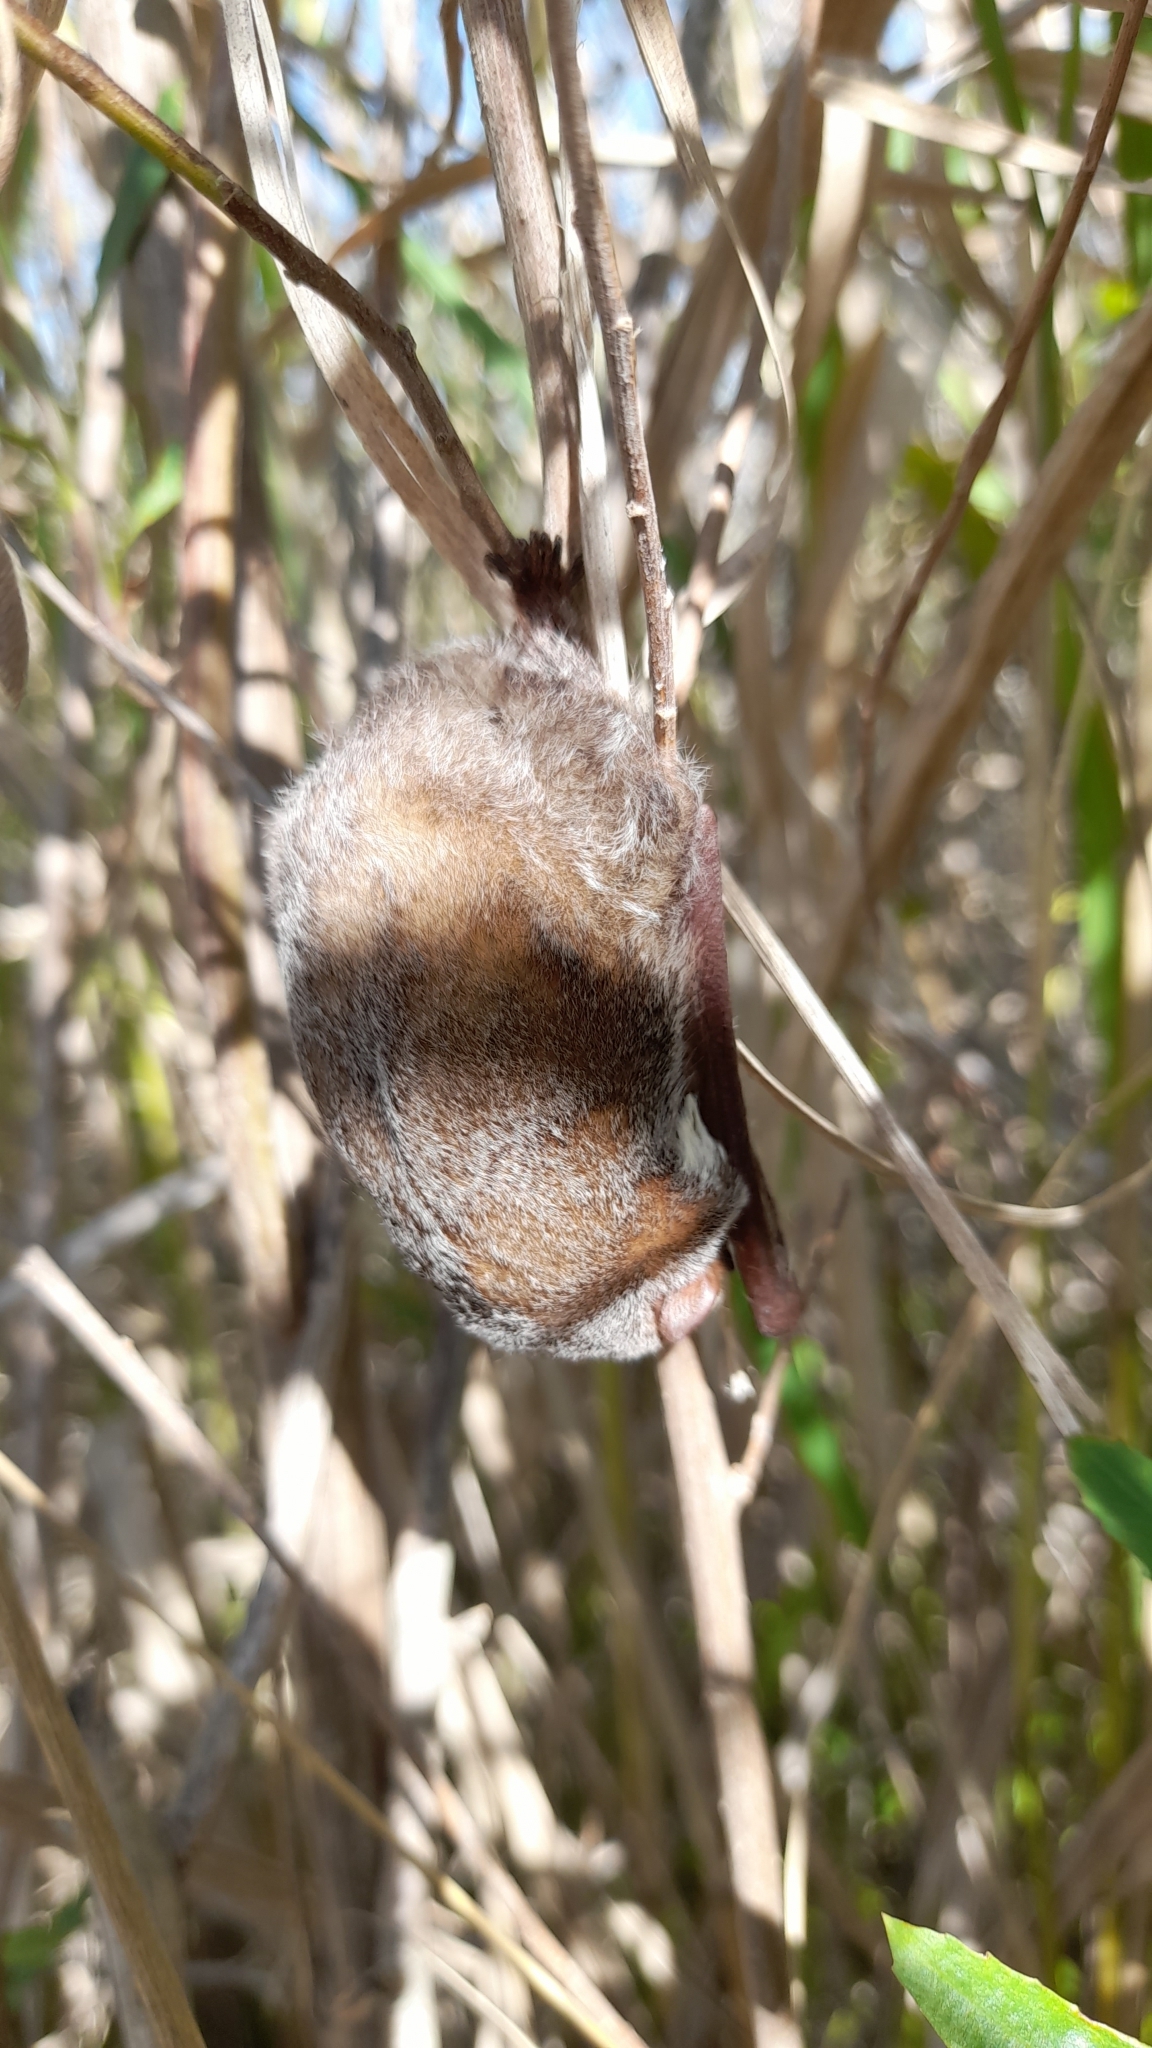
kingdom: Animalia
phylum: Chordata
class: Mammalia
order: Chiroptera
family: Vespertilionidae
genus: Lasiurus
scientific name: Lasiurus blossevillii
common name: Southern red bat
